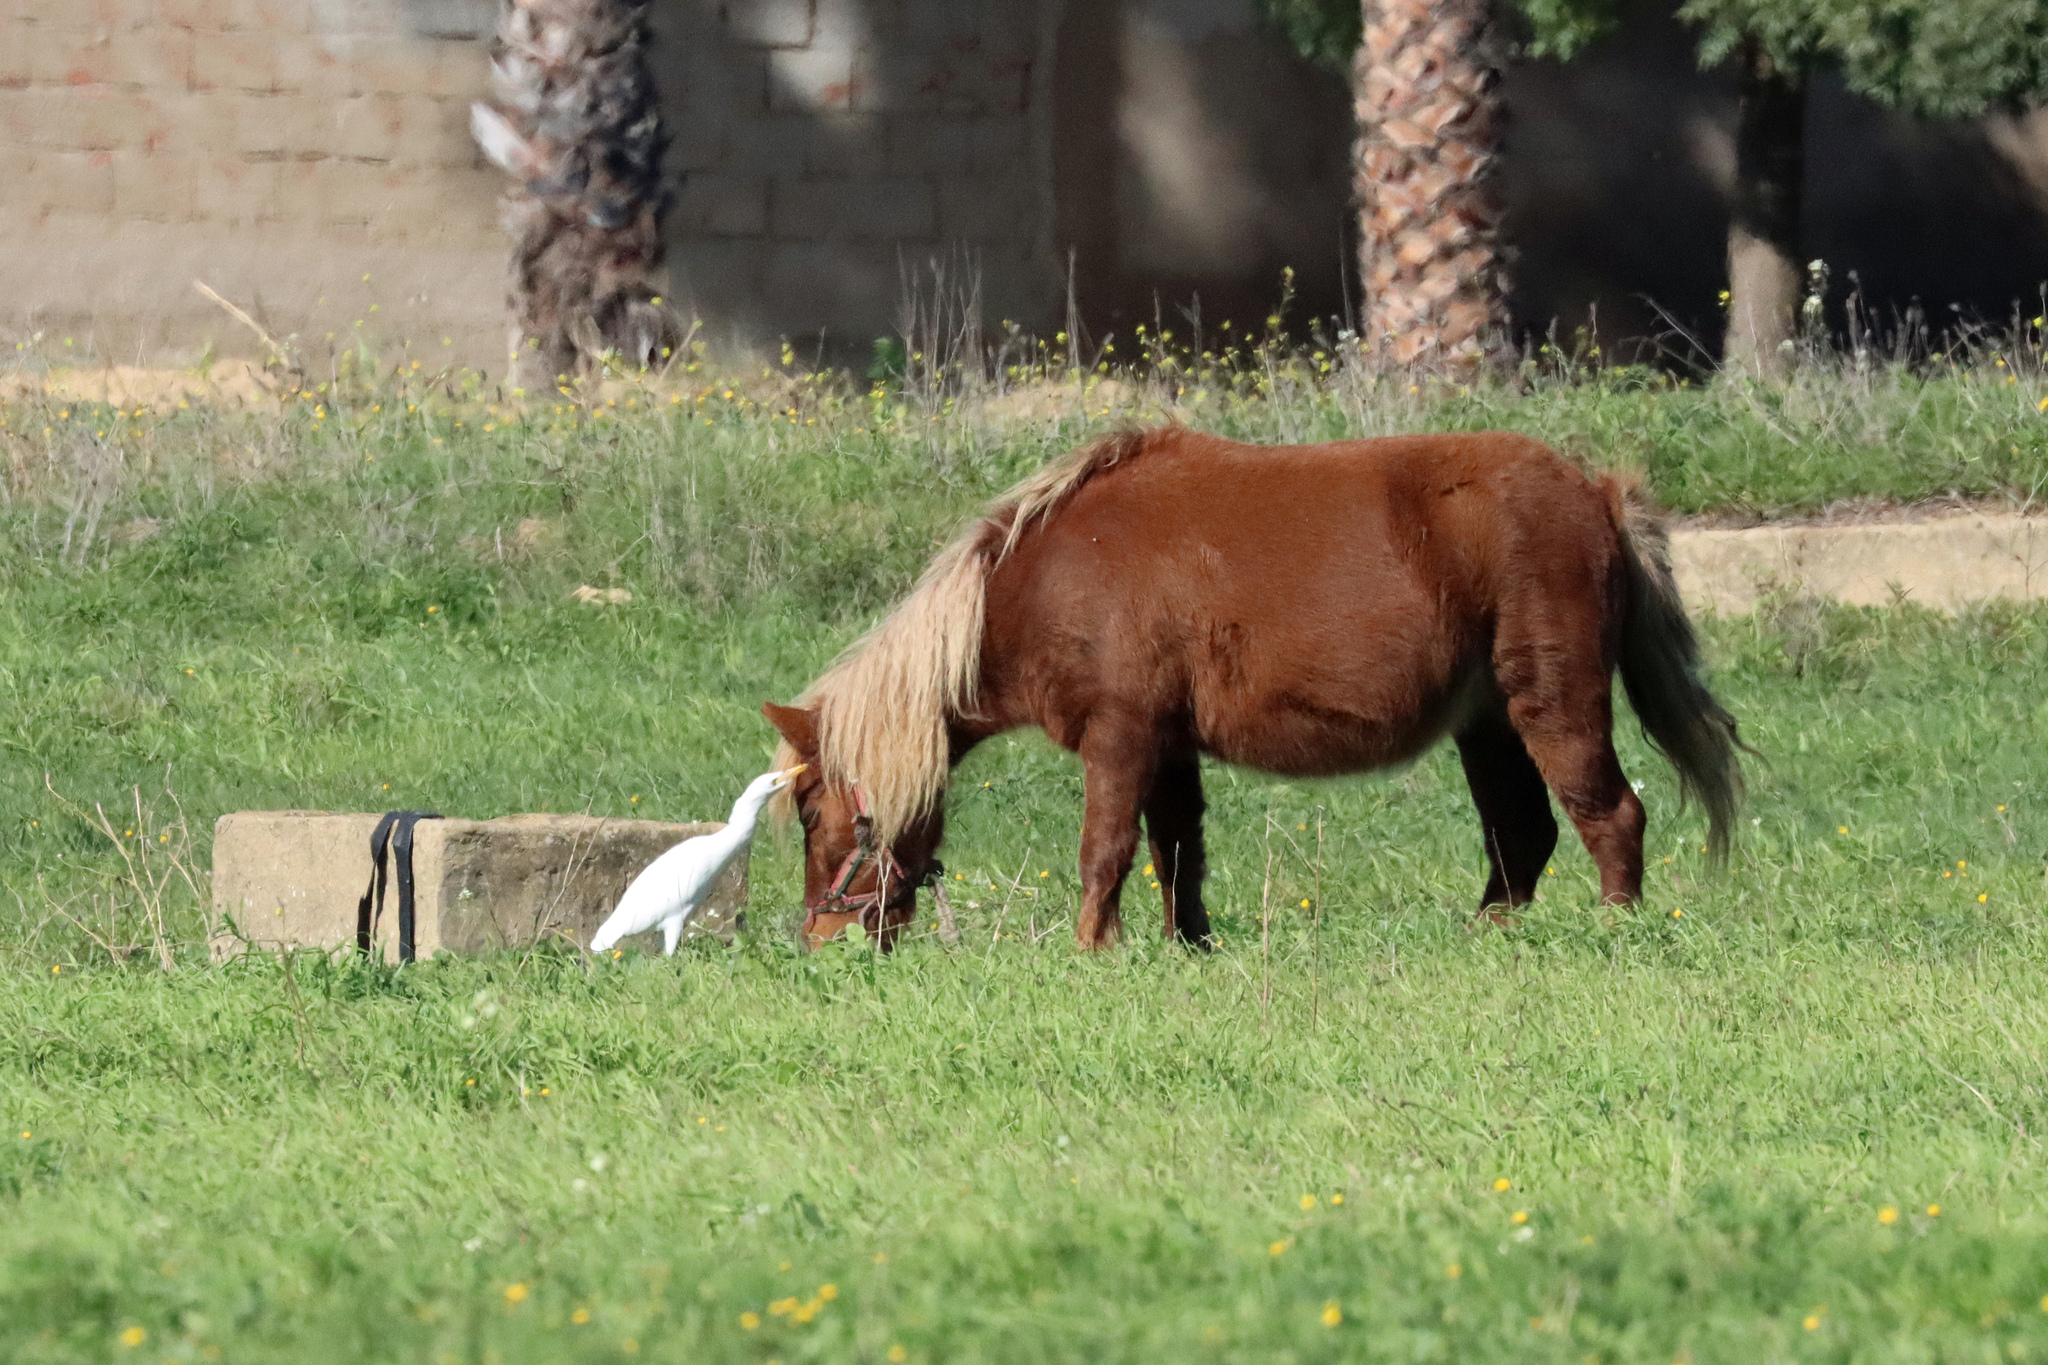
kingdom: Animalia
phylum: Chordata
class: Aves
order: Pelecaniformes
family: Ardeidae
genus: Bubulcus
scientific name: Bubulcus ibis
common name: Cattle egret
